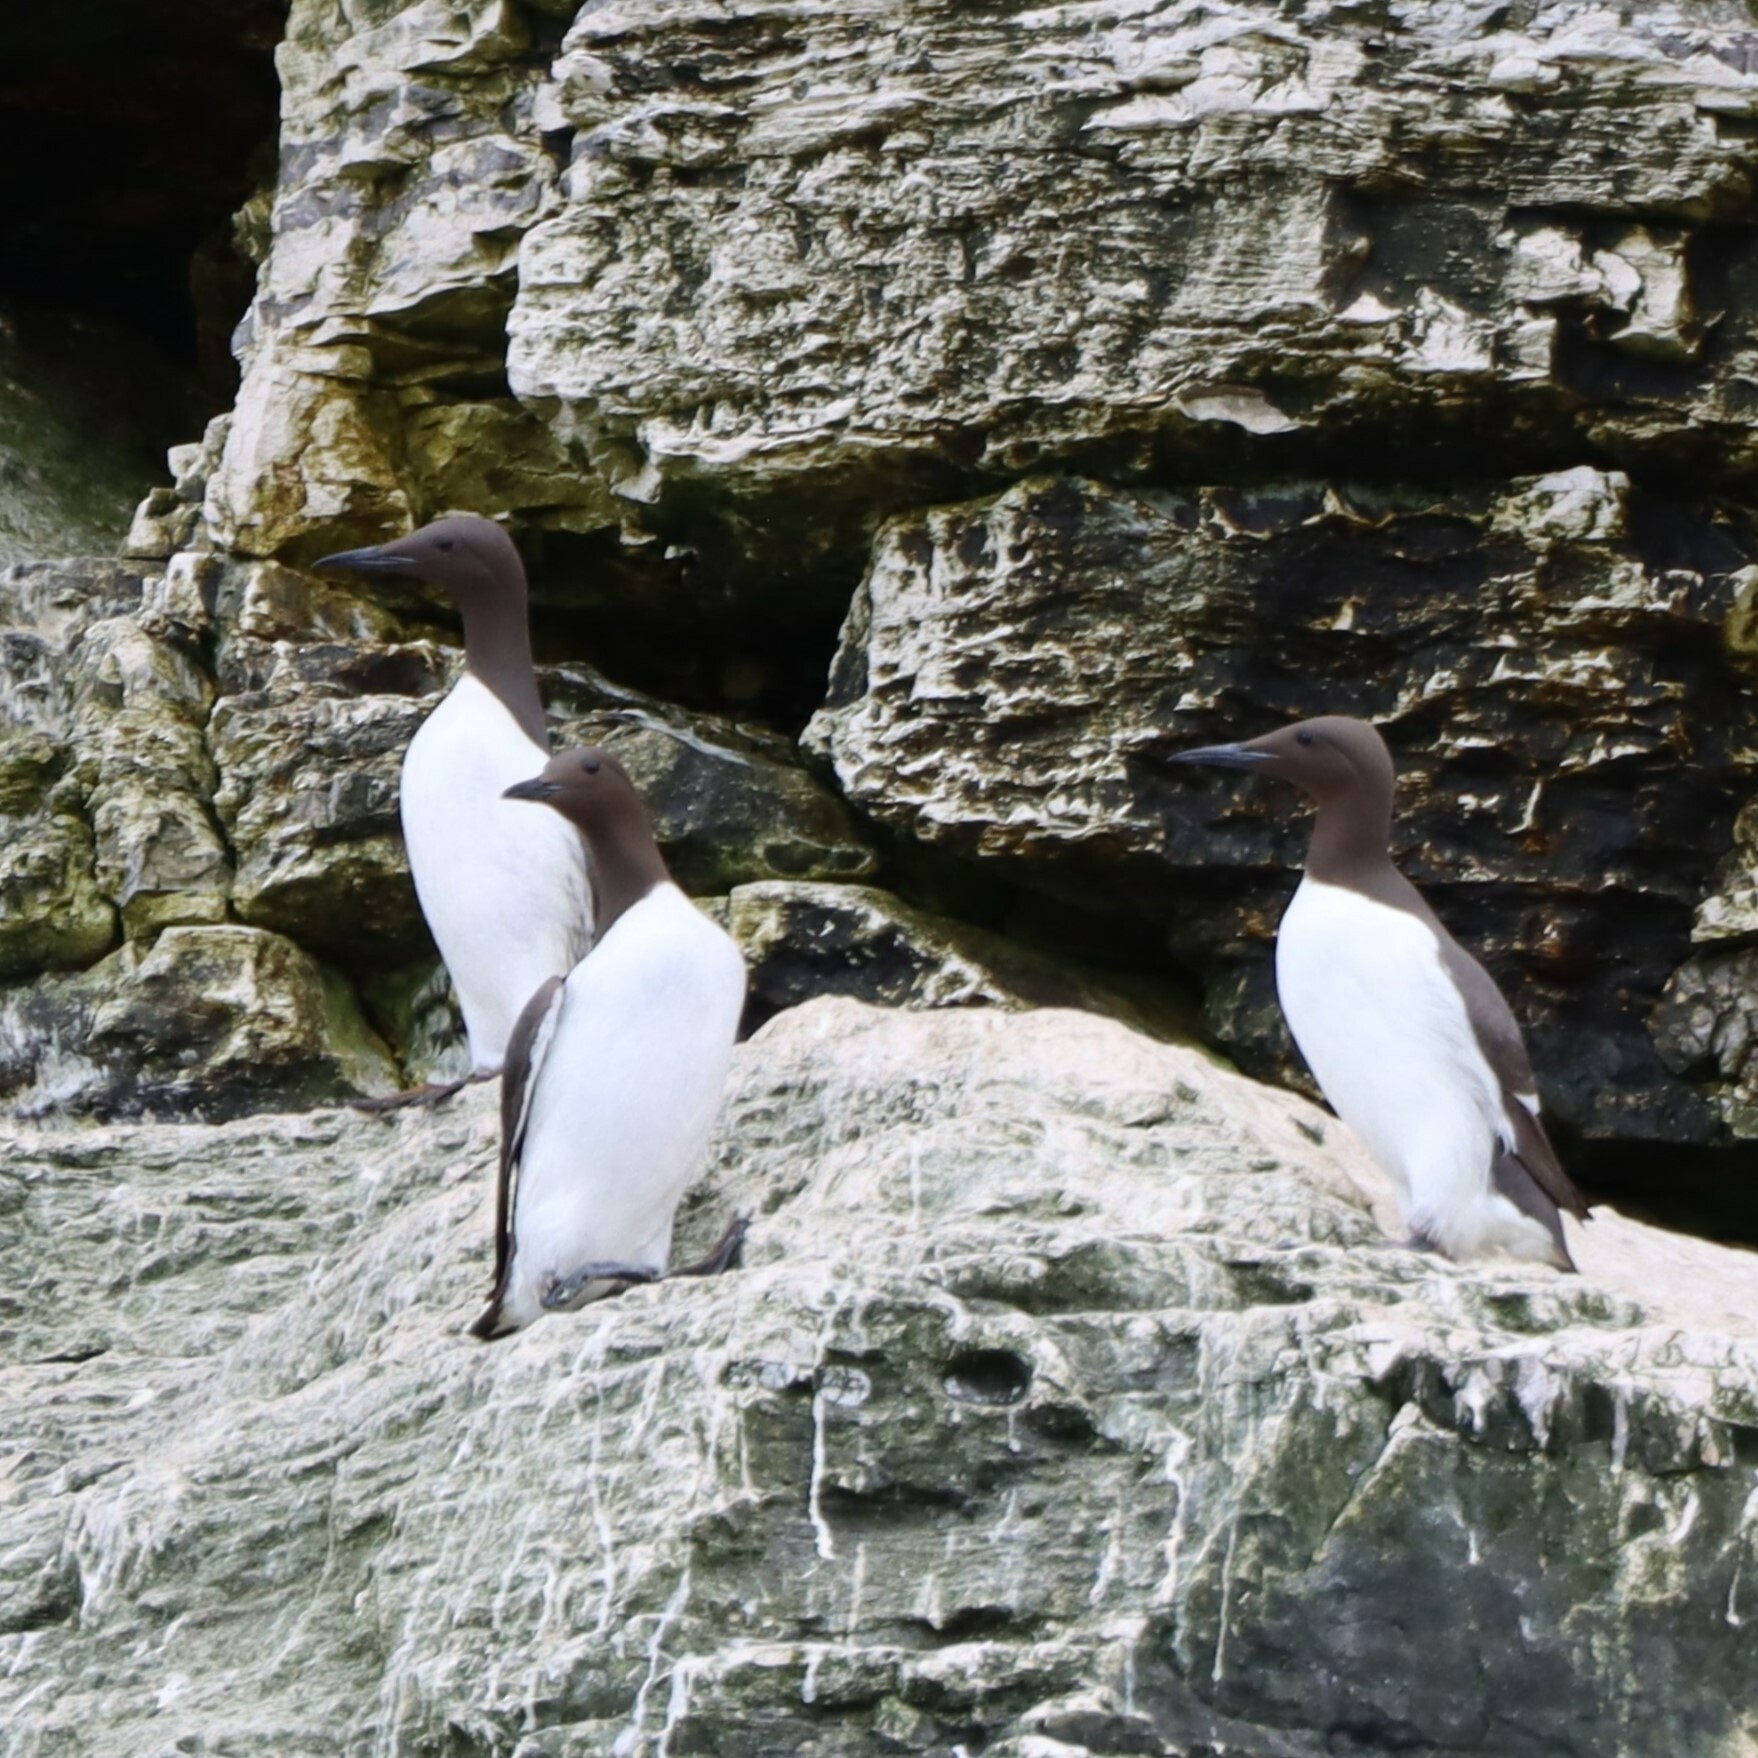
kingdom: Animalia
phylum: Chordata
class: Aves
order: Charadriiformes
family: Alcidae
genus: Uria
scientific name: Uria aalge
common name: Common murre
